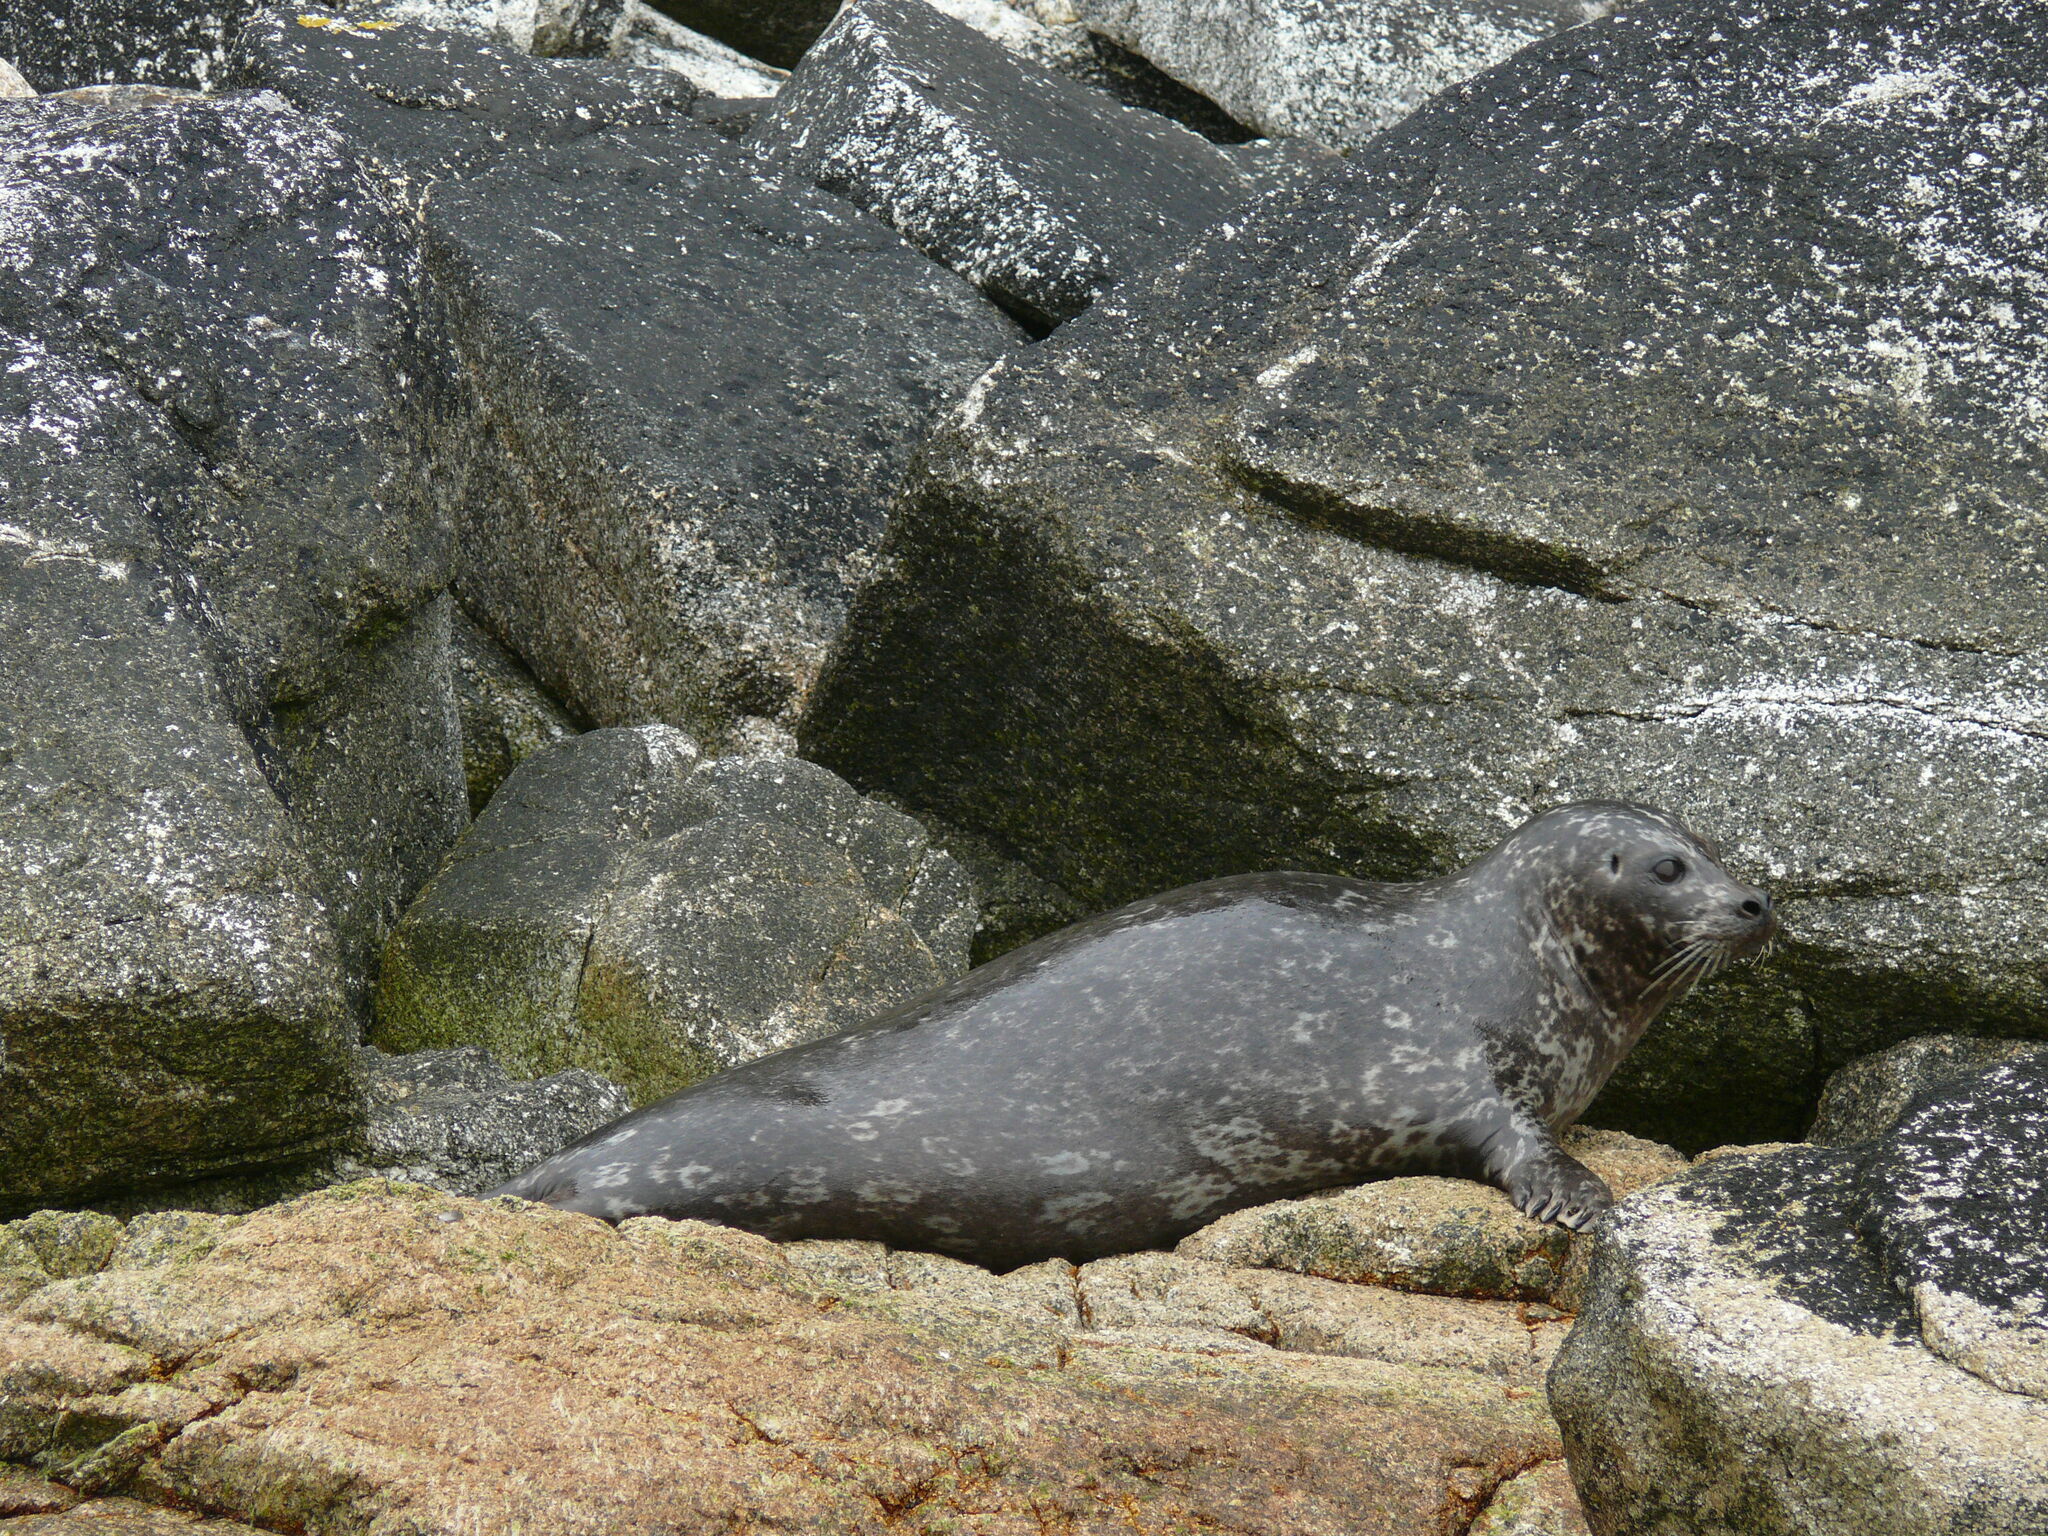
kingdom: Animalia
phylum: Chordata
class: Mammalia
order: Carnivora
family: Phocidae
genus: Phoca
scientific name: Phoca vitulina
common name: Harbor seal
